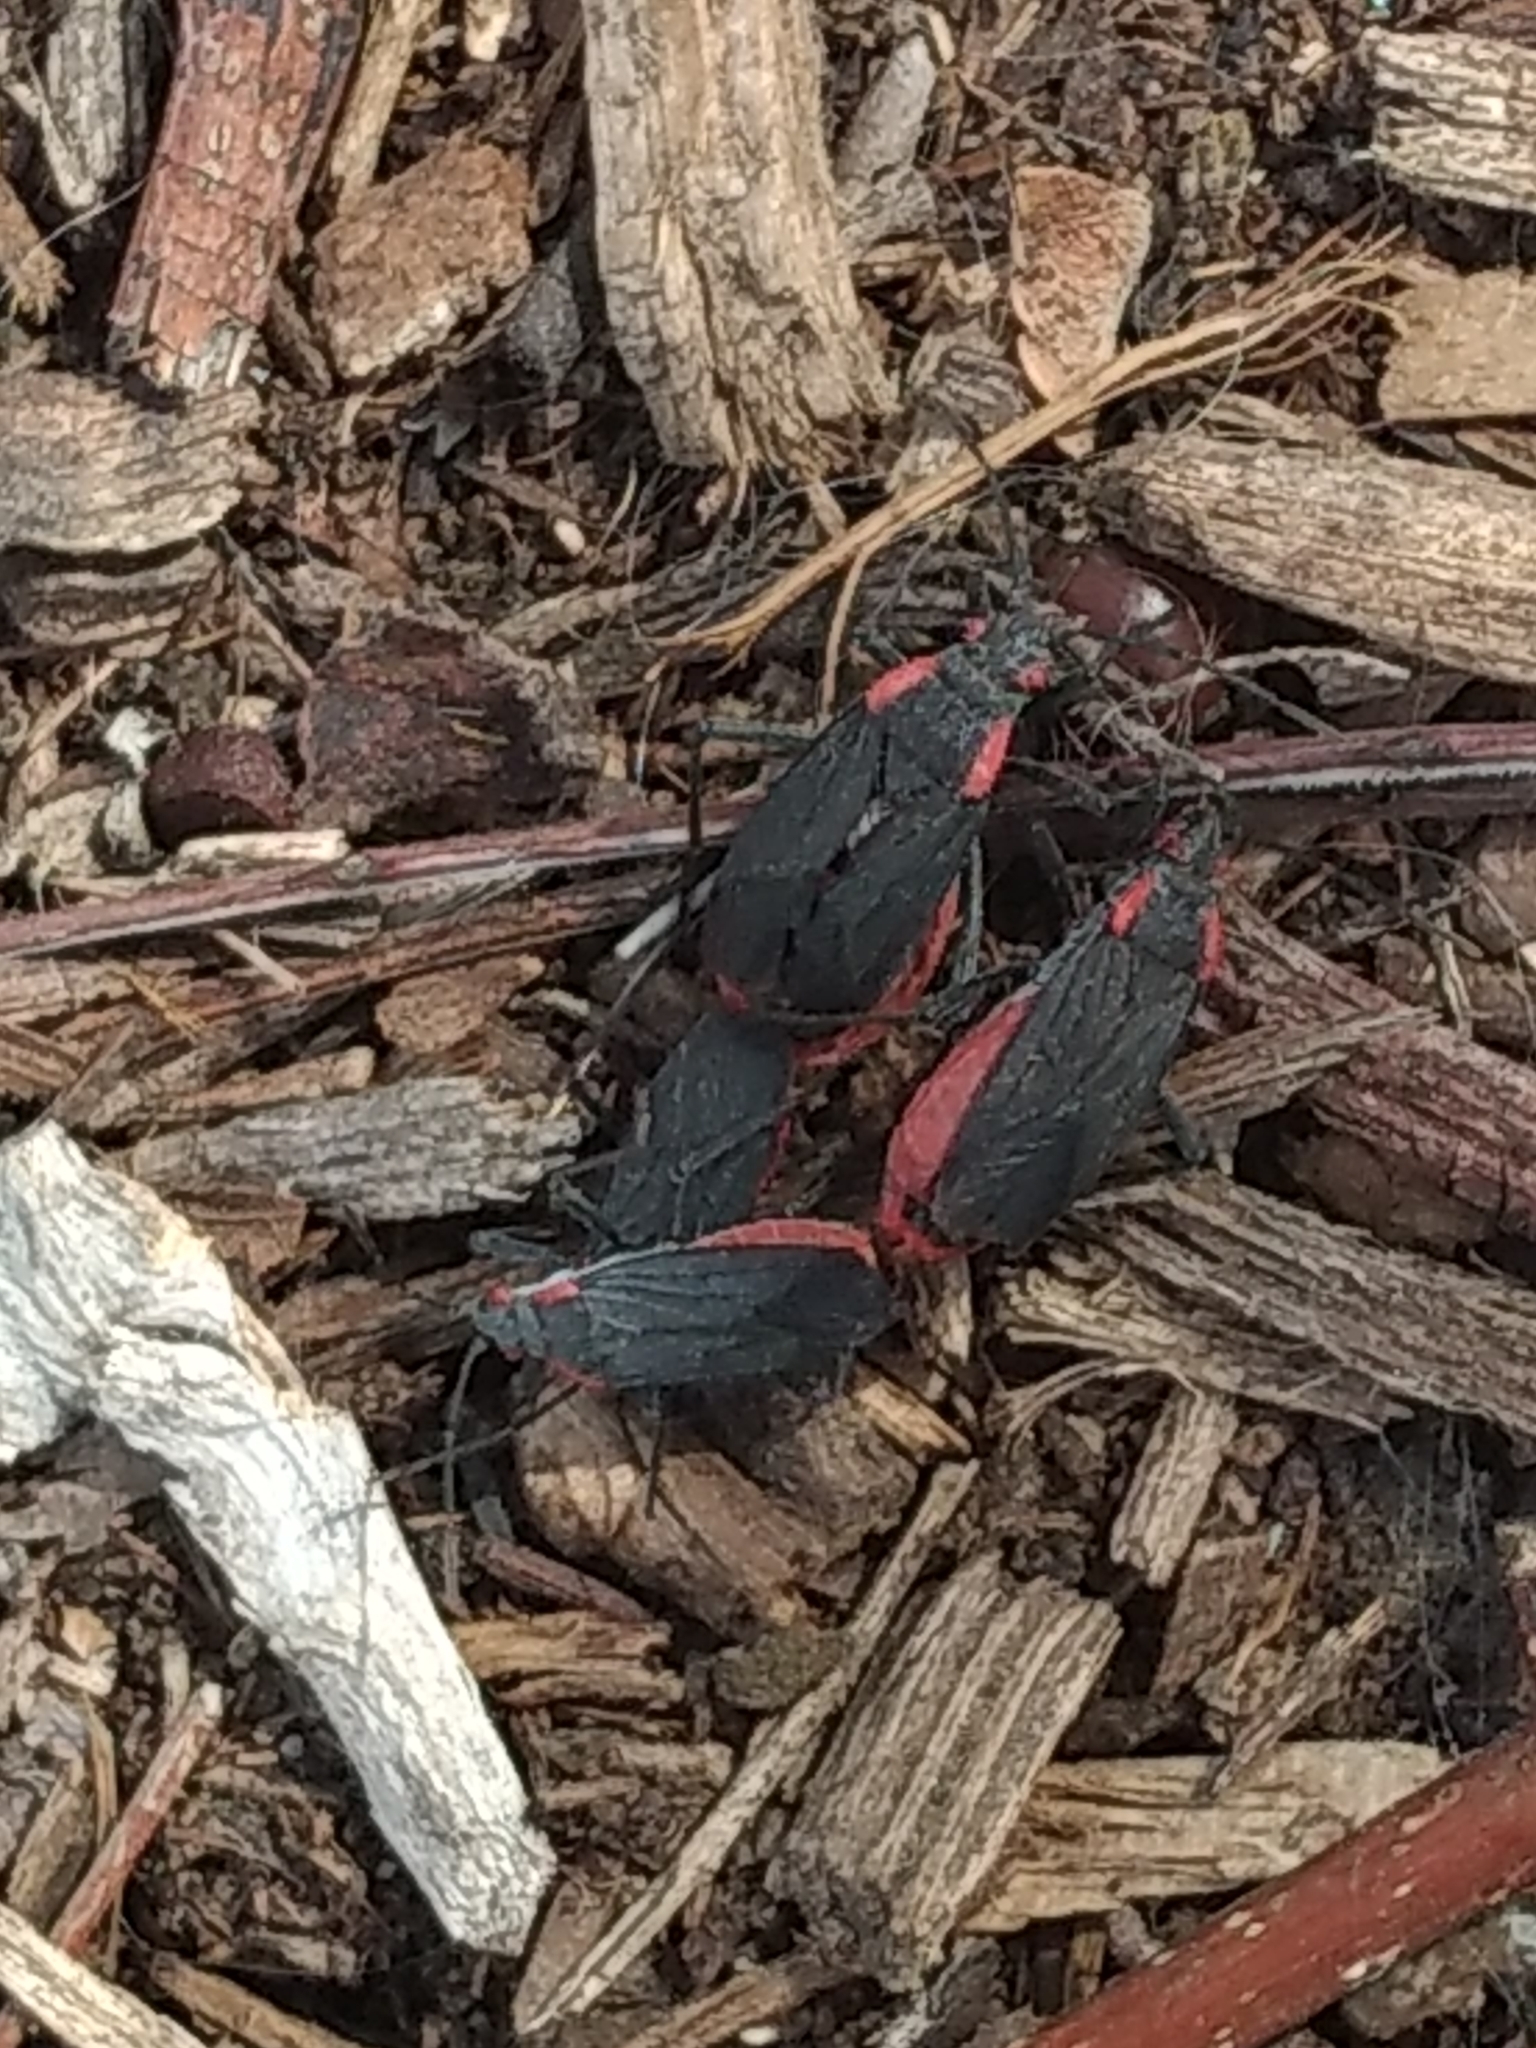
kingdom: Animalia
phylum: Arthropoda
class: Insecta
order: Hemiptera
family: Rhopalidae
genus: Jadera
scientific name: Jadera haematoloma
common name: Red-shouldered bug
